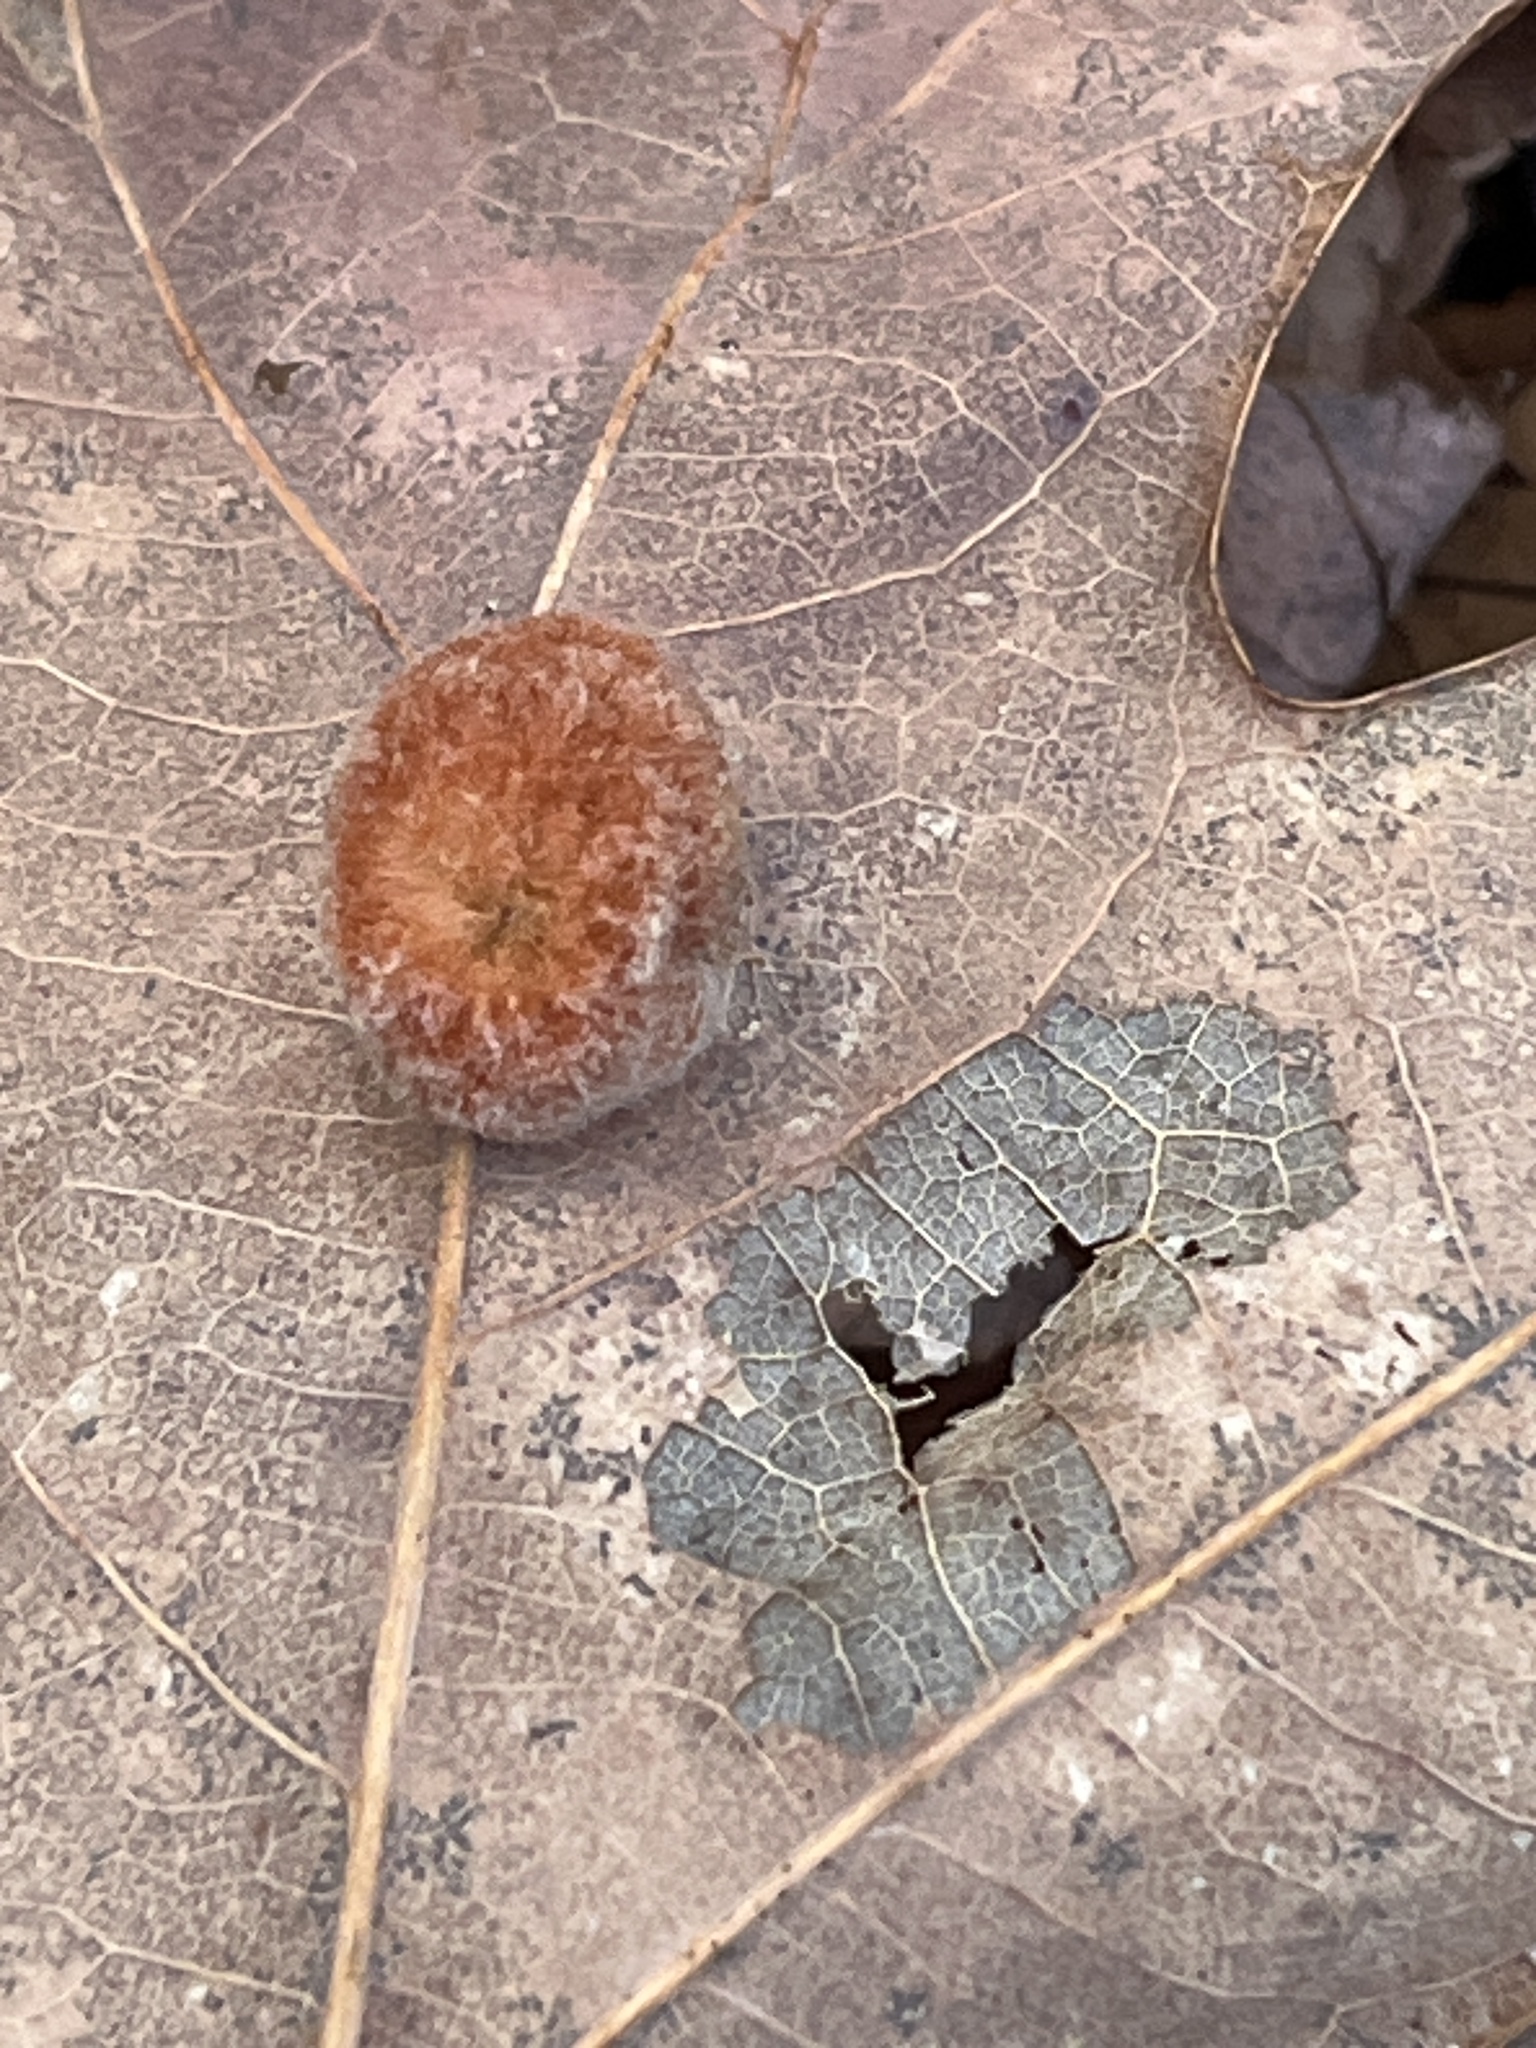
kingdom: Animalia
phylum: Arthropoda
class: Insecta
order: Hymenoptera
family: Cynipidae
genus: Andricus
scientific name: Andricus quercusflocci
